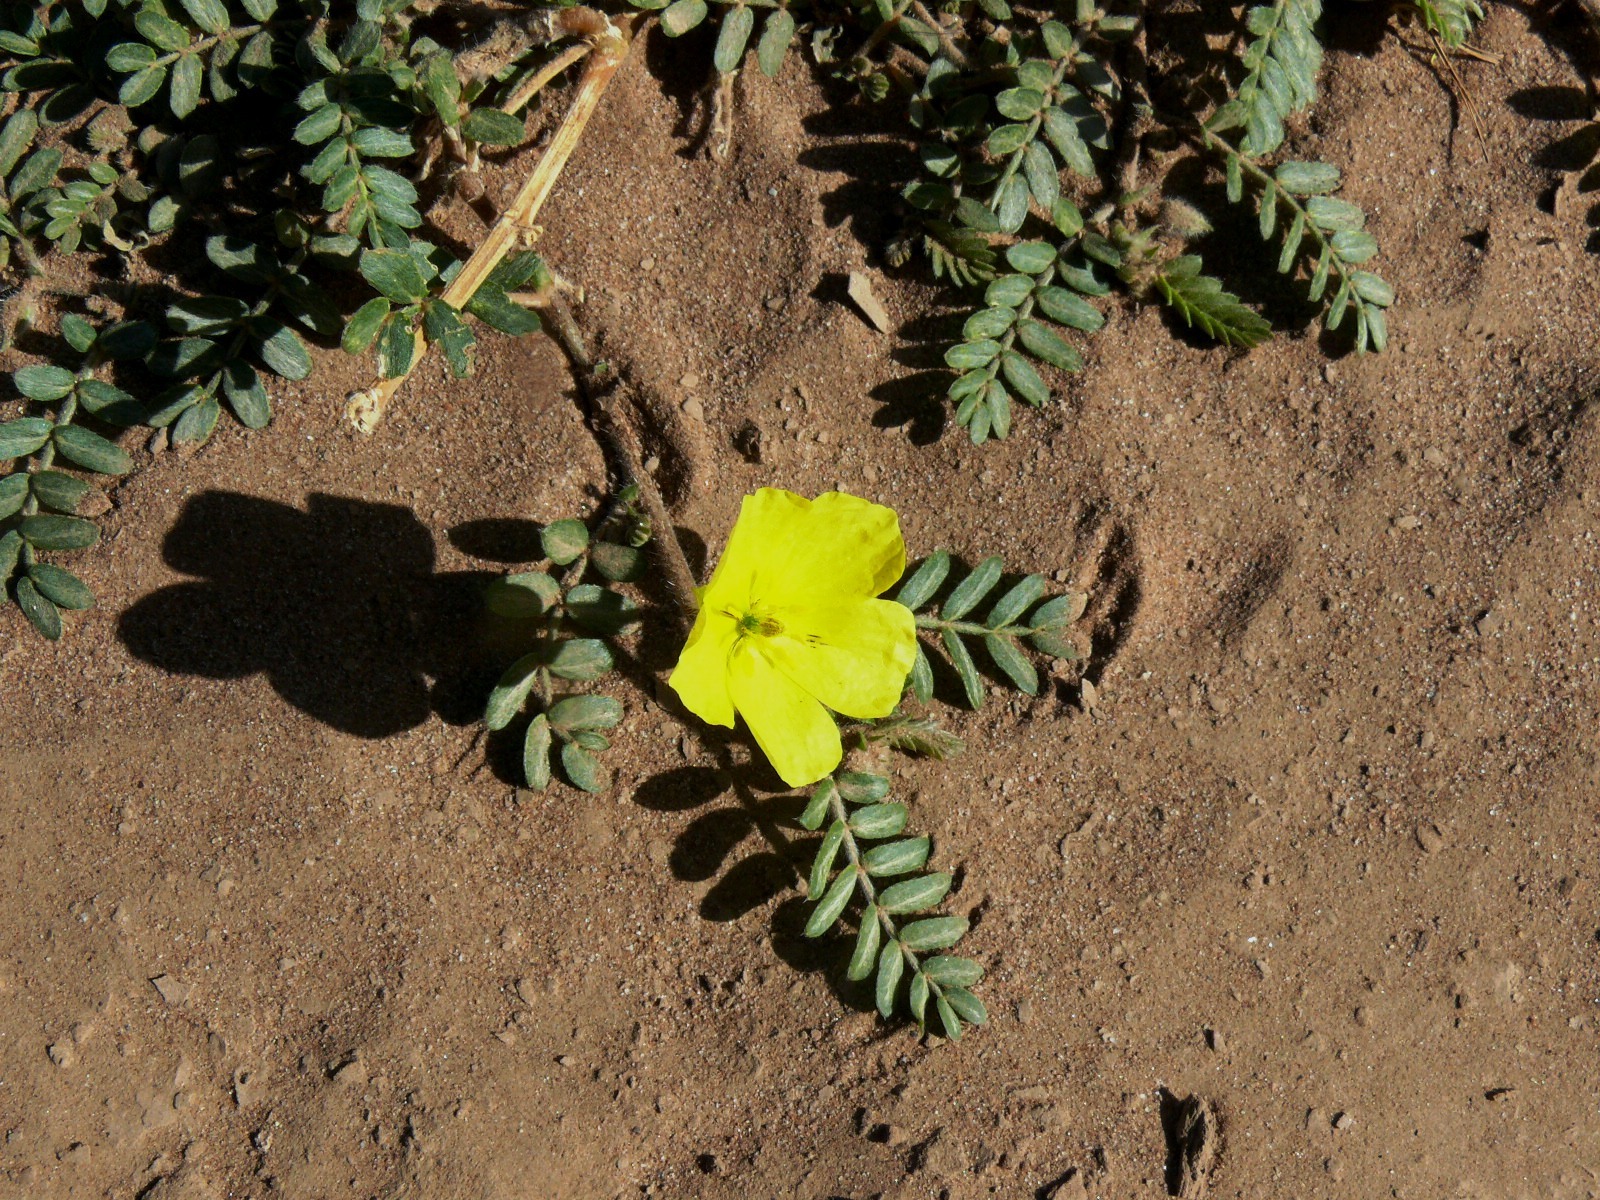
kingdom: Plantae
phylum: Tracheophyta
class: Magnoliopsida
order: Zygophyllales
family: Zygophyllaceae
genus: Tribulus
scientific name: Tribulus pentandrus
